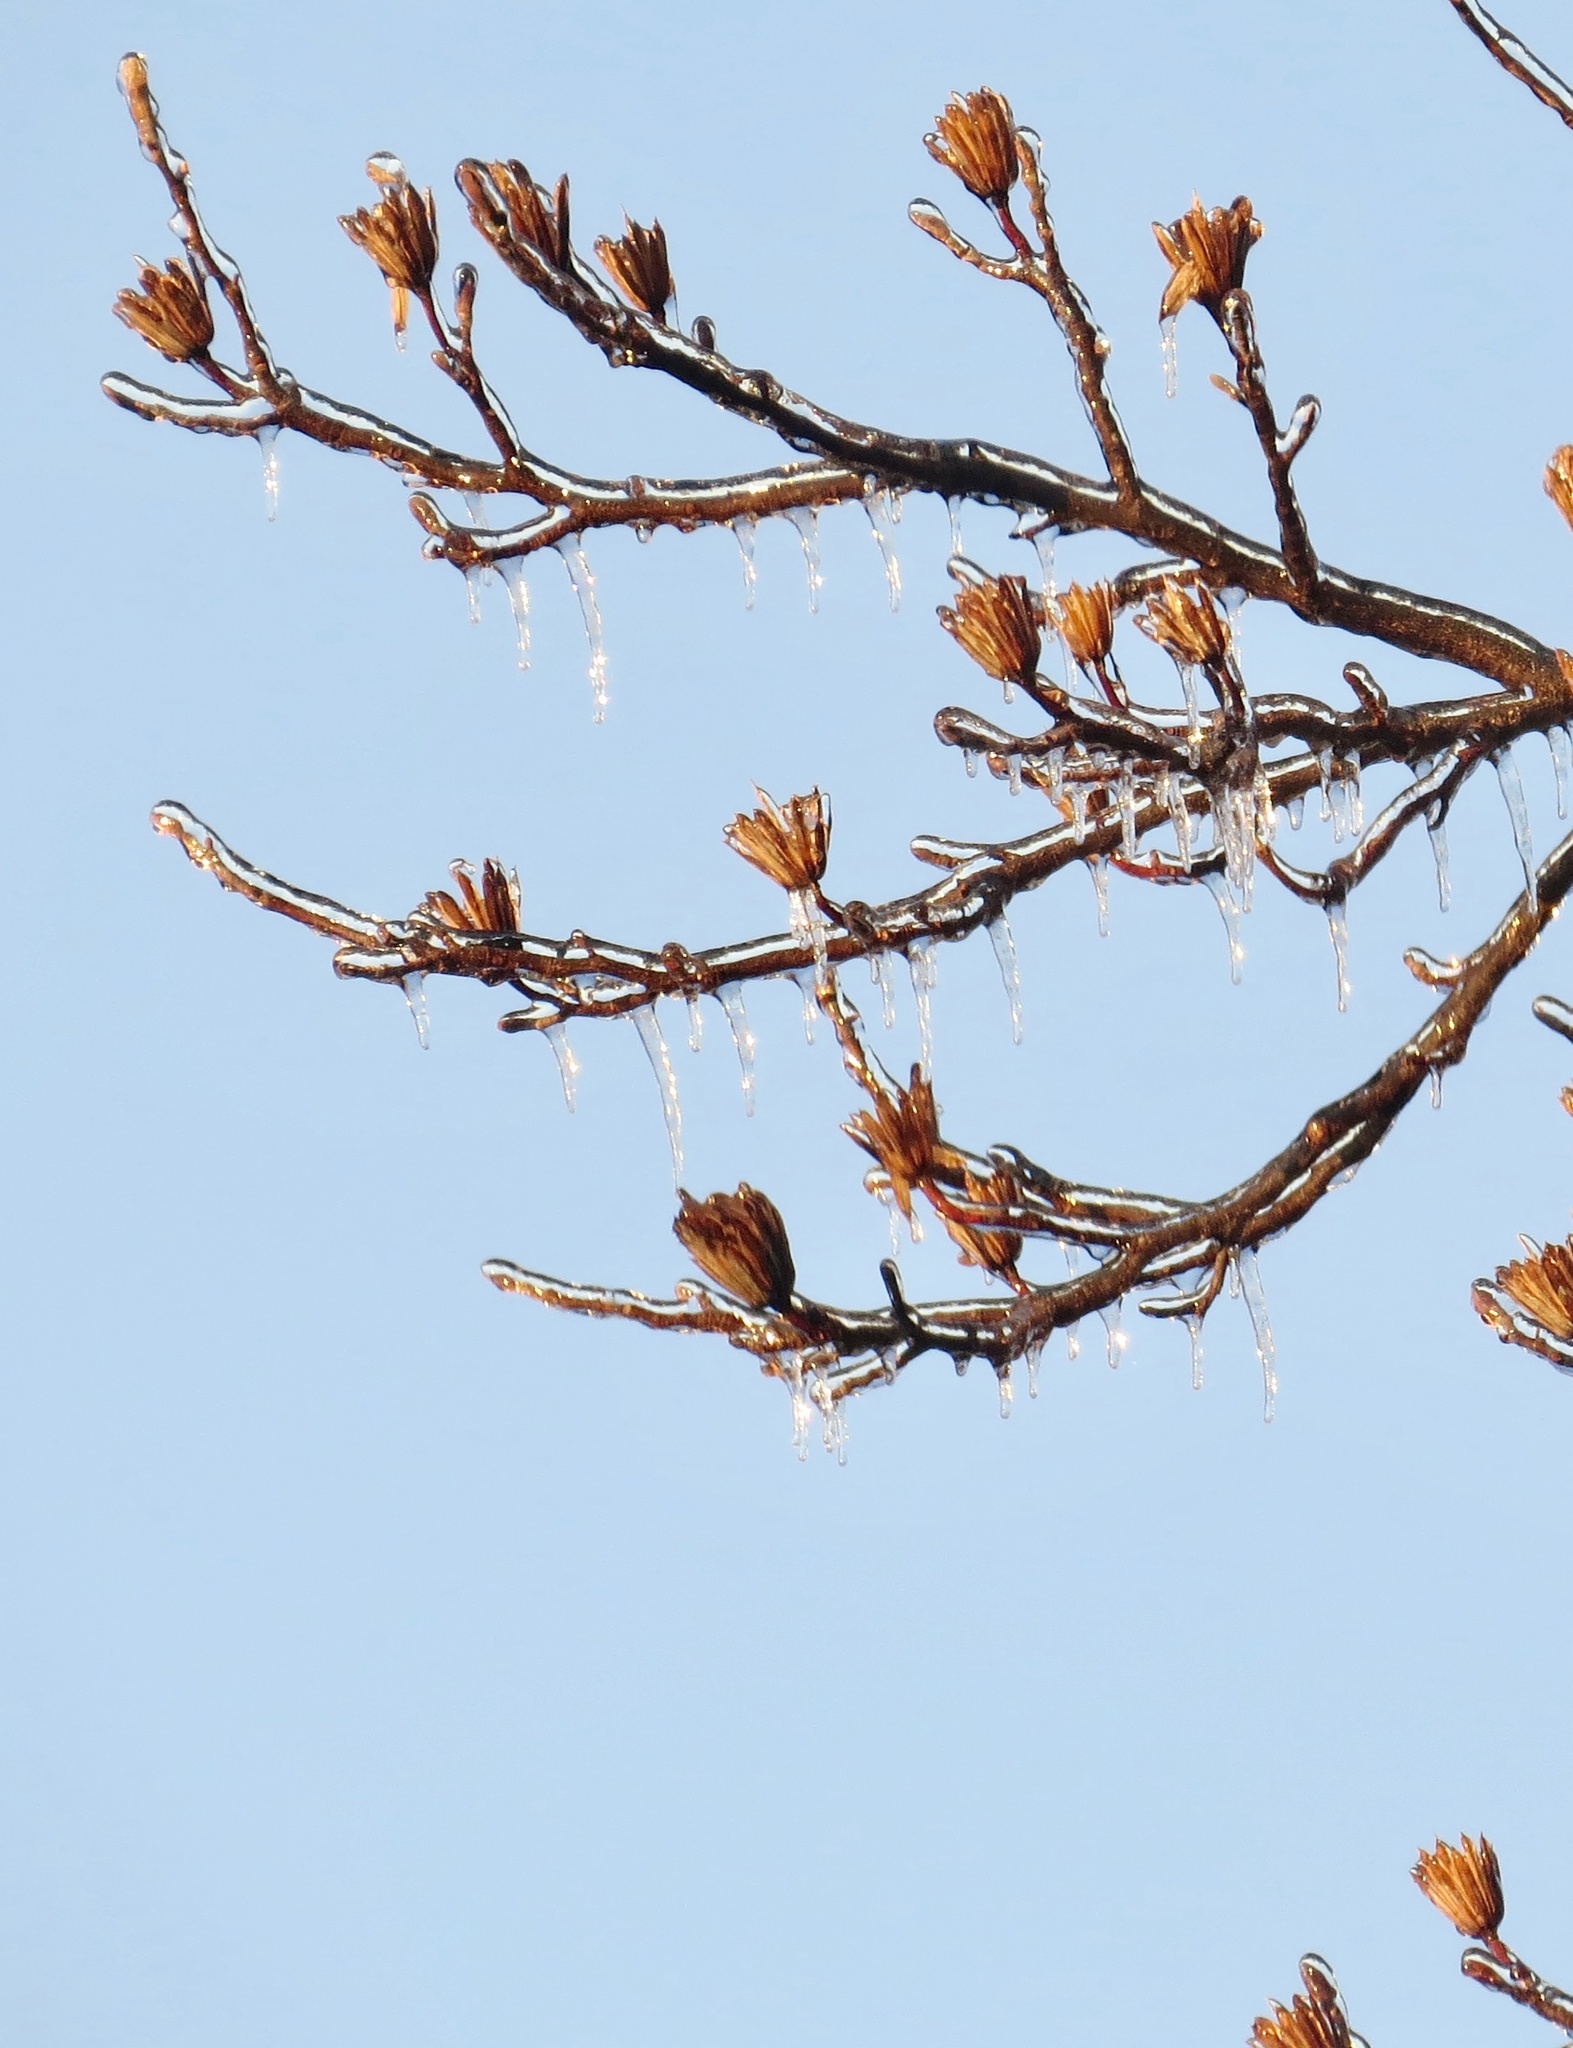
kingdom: Plantae
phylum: Tracheophyta
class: Magnoliopsida
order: Magnoliales
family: Magnoliaceae
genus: Liriodendron
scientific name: Liriodendron tulipifera
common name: Tulip tree
